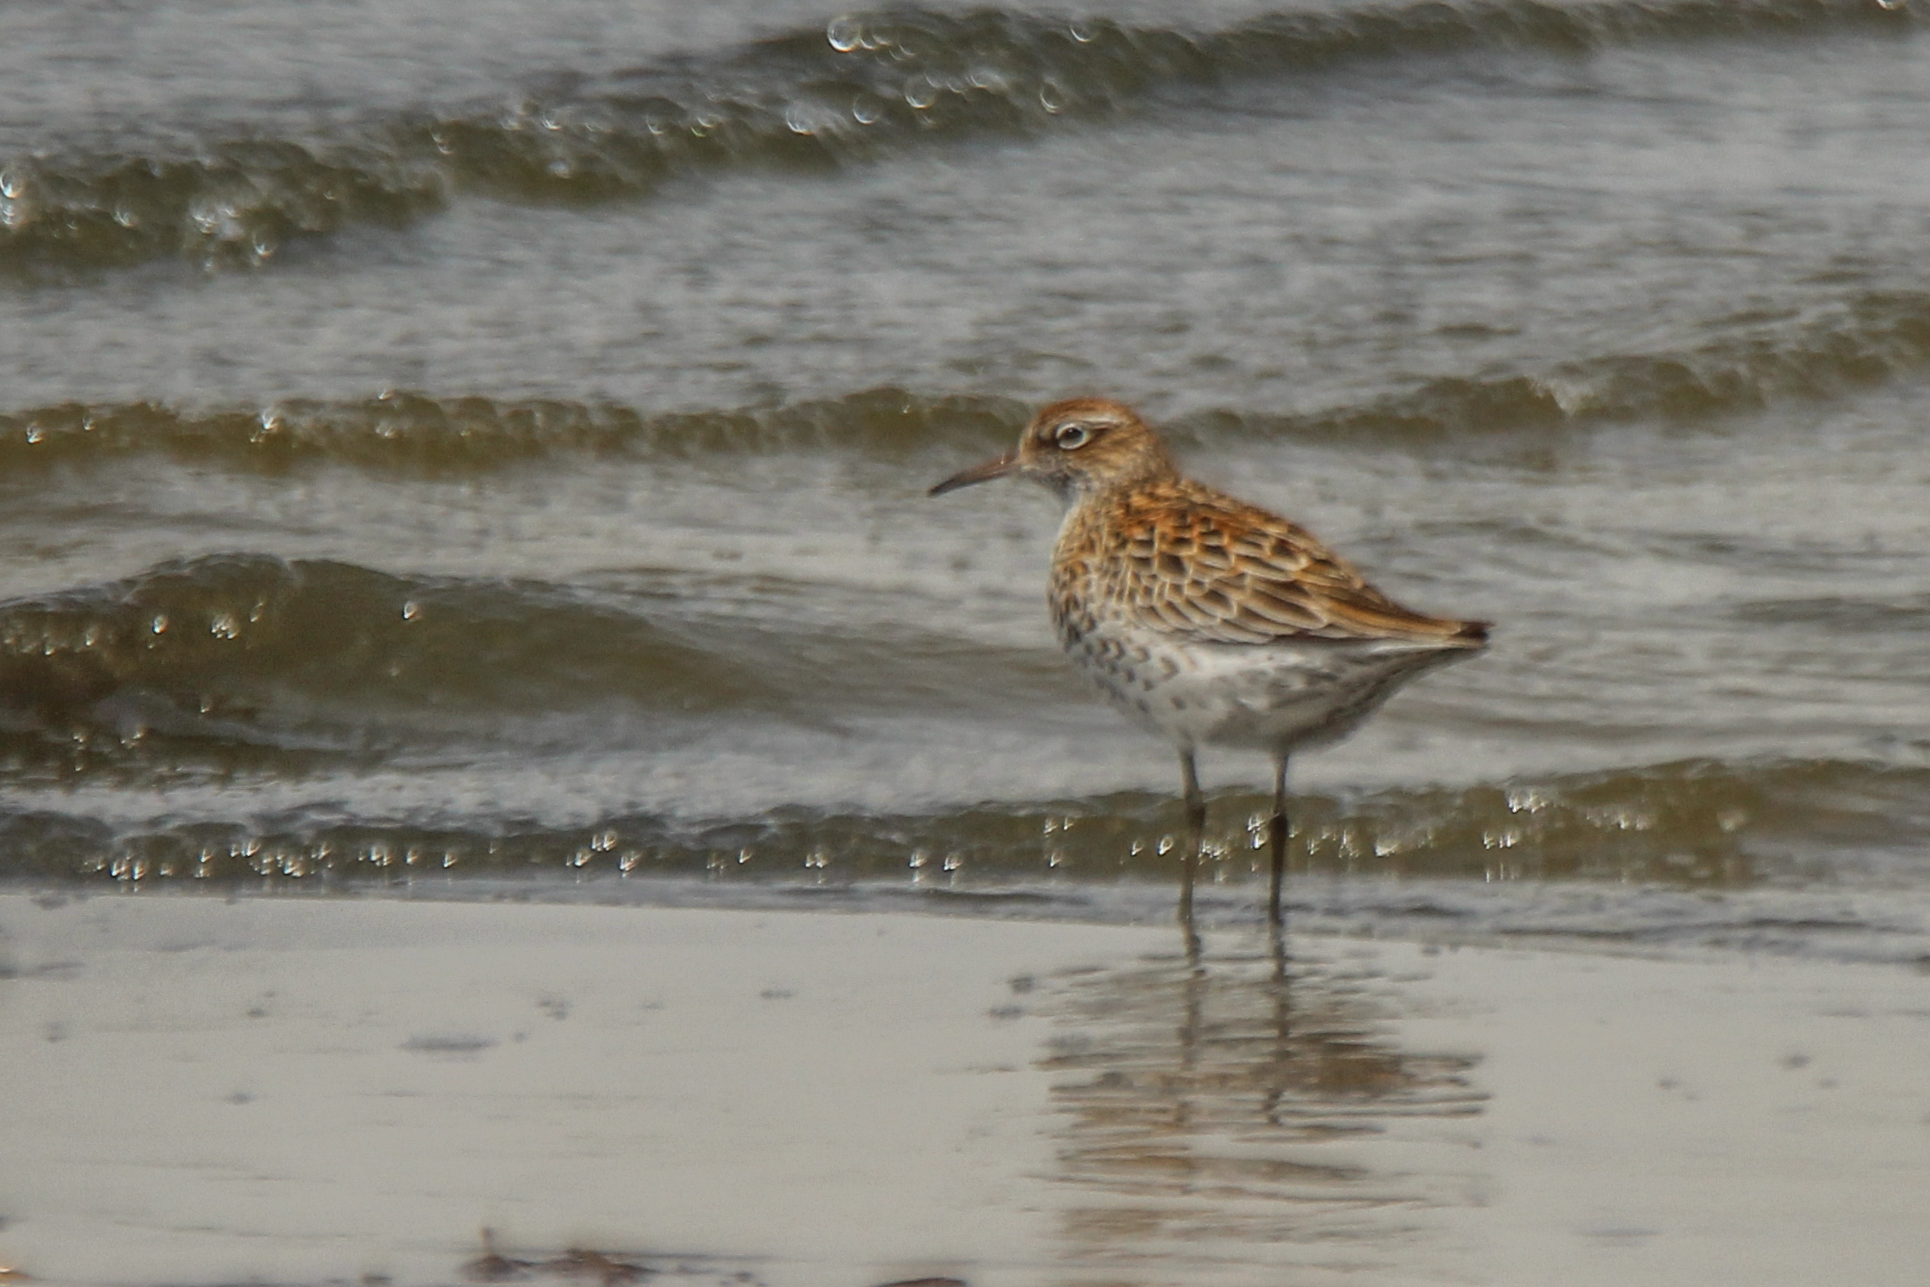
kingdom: Animalia
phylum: Chordata
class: Aves
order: Charadriiformes
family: Scolopacidae
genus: Calidris
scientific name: Calidris acuminata
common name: Sharp-tailed sandpiper
